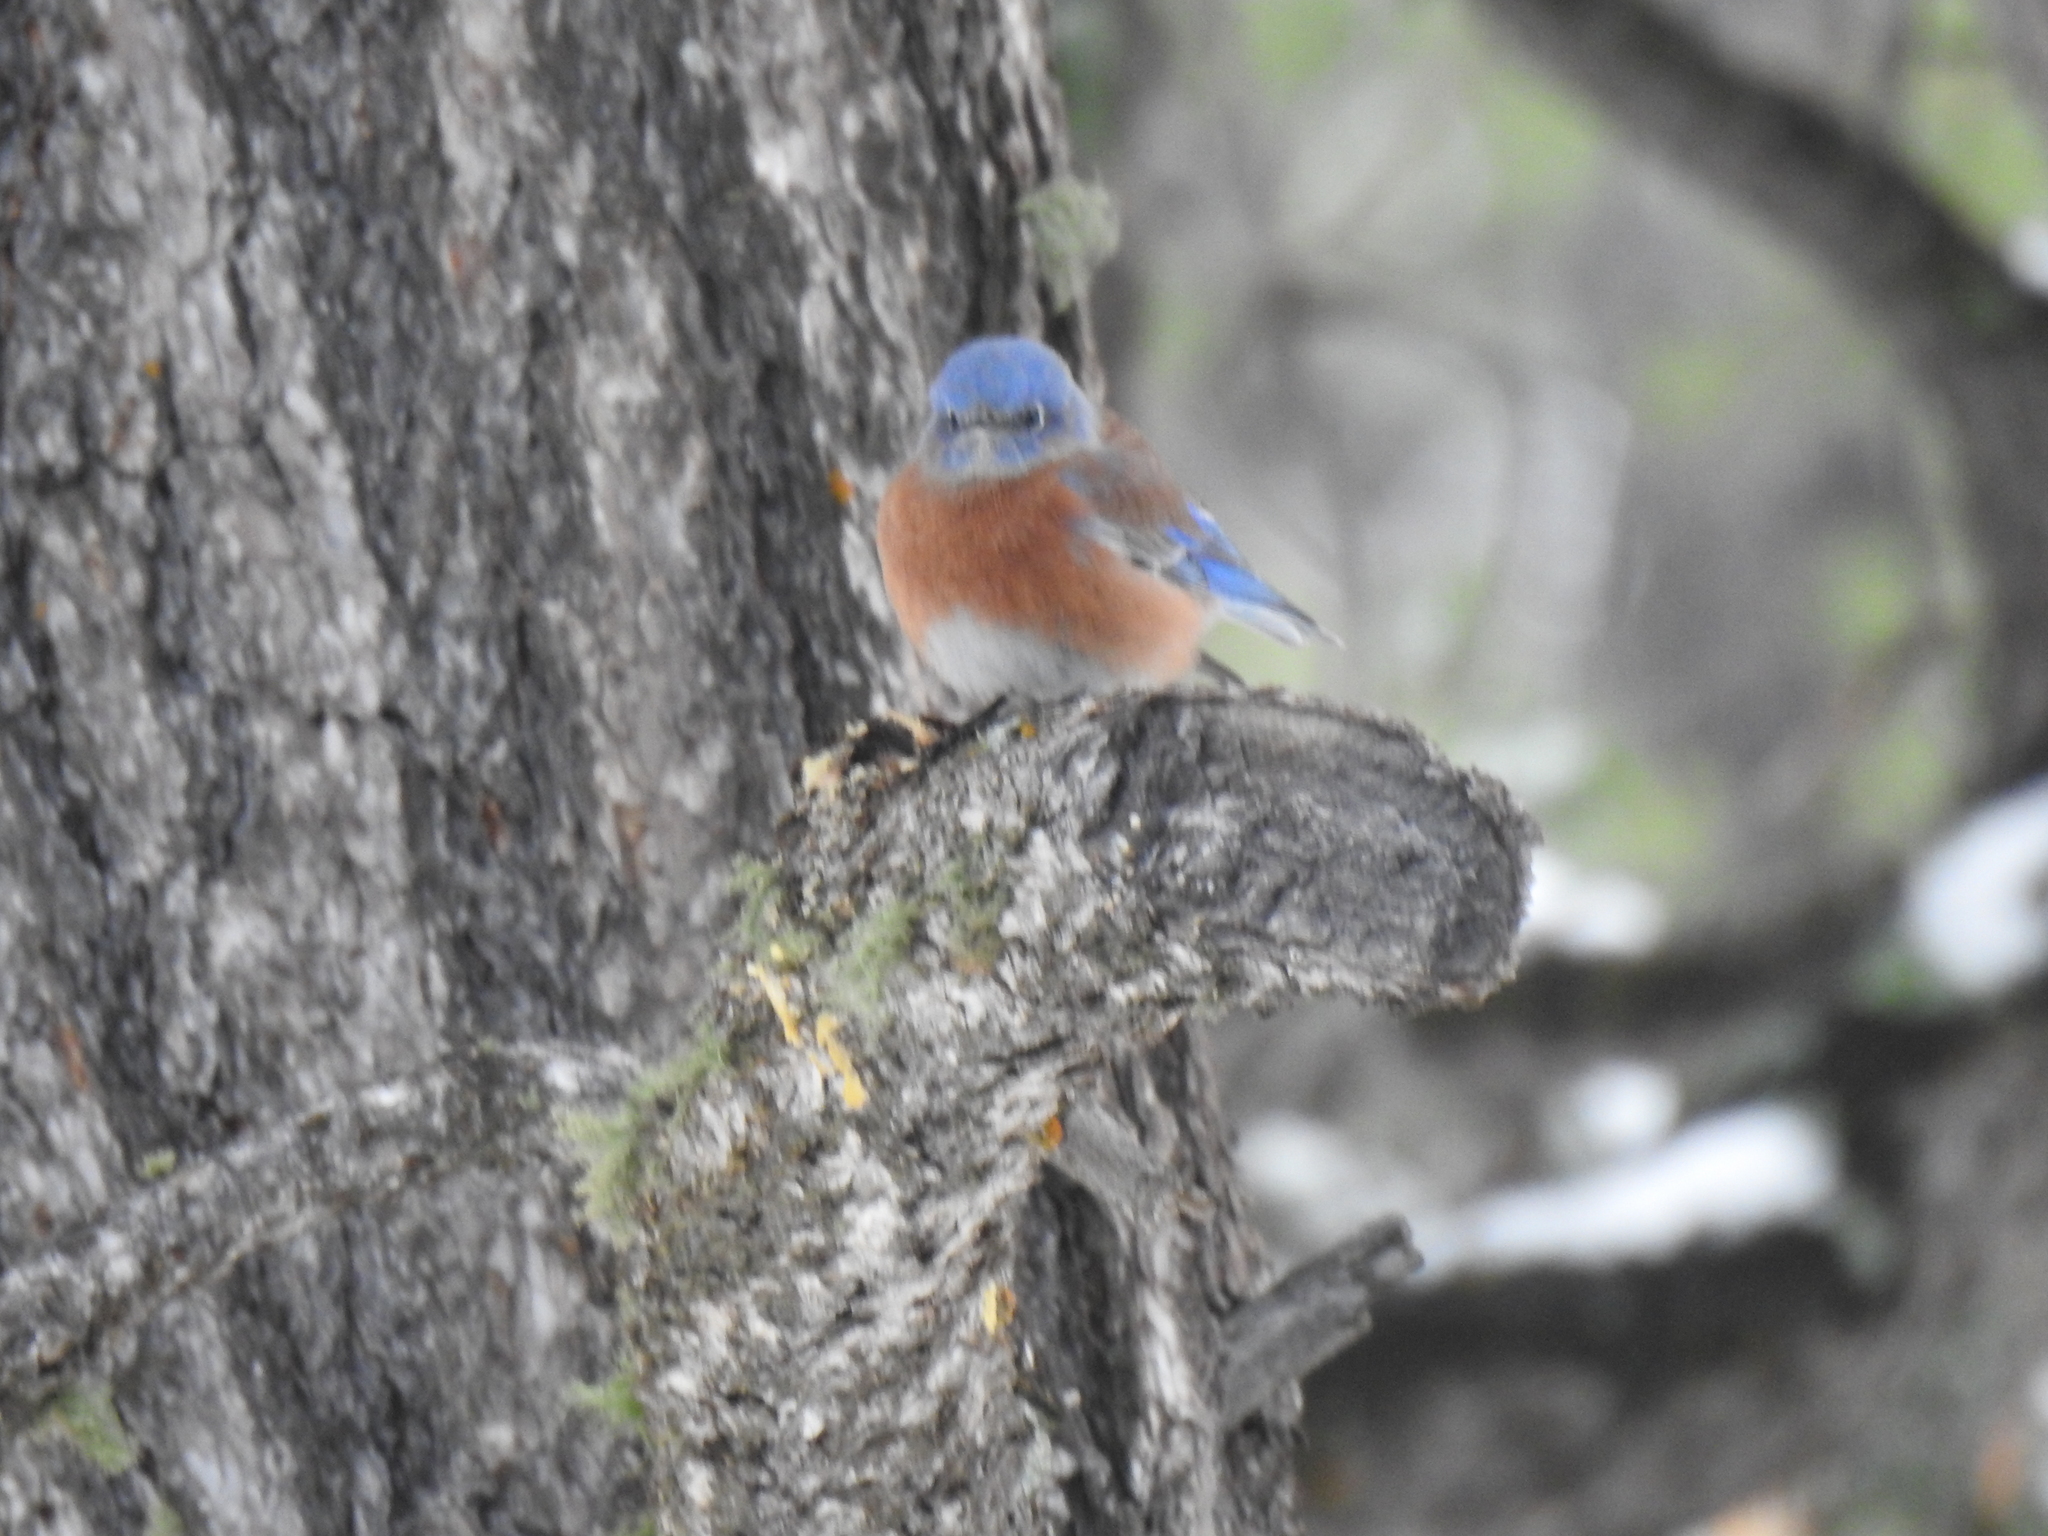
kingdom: Animalia
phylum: Chordata
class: Aves
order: Passeriformes
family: Turdidae
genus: Sialia
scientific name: Sialia mexicana
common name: Western bluebird
